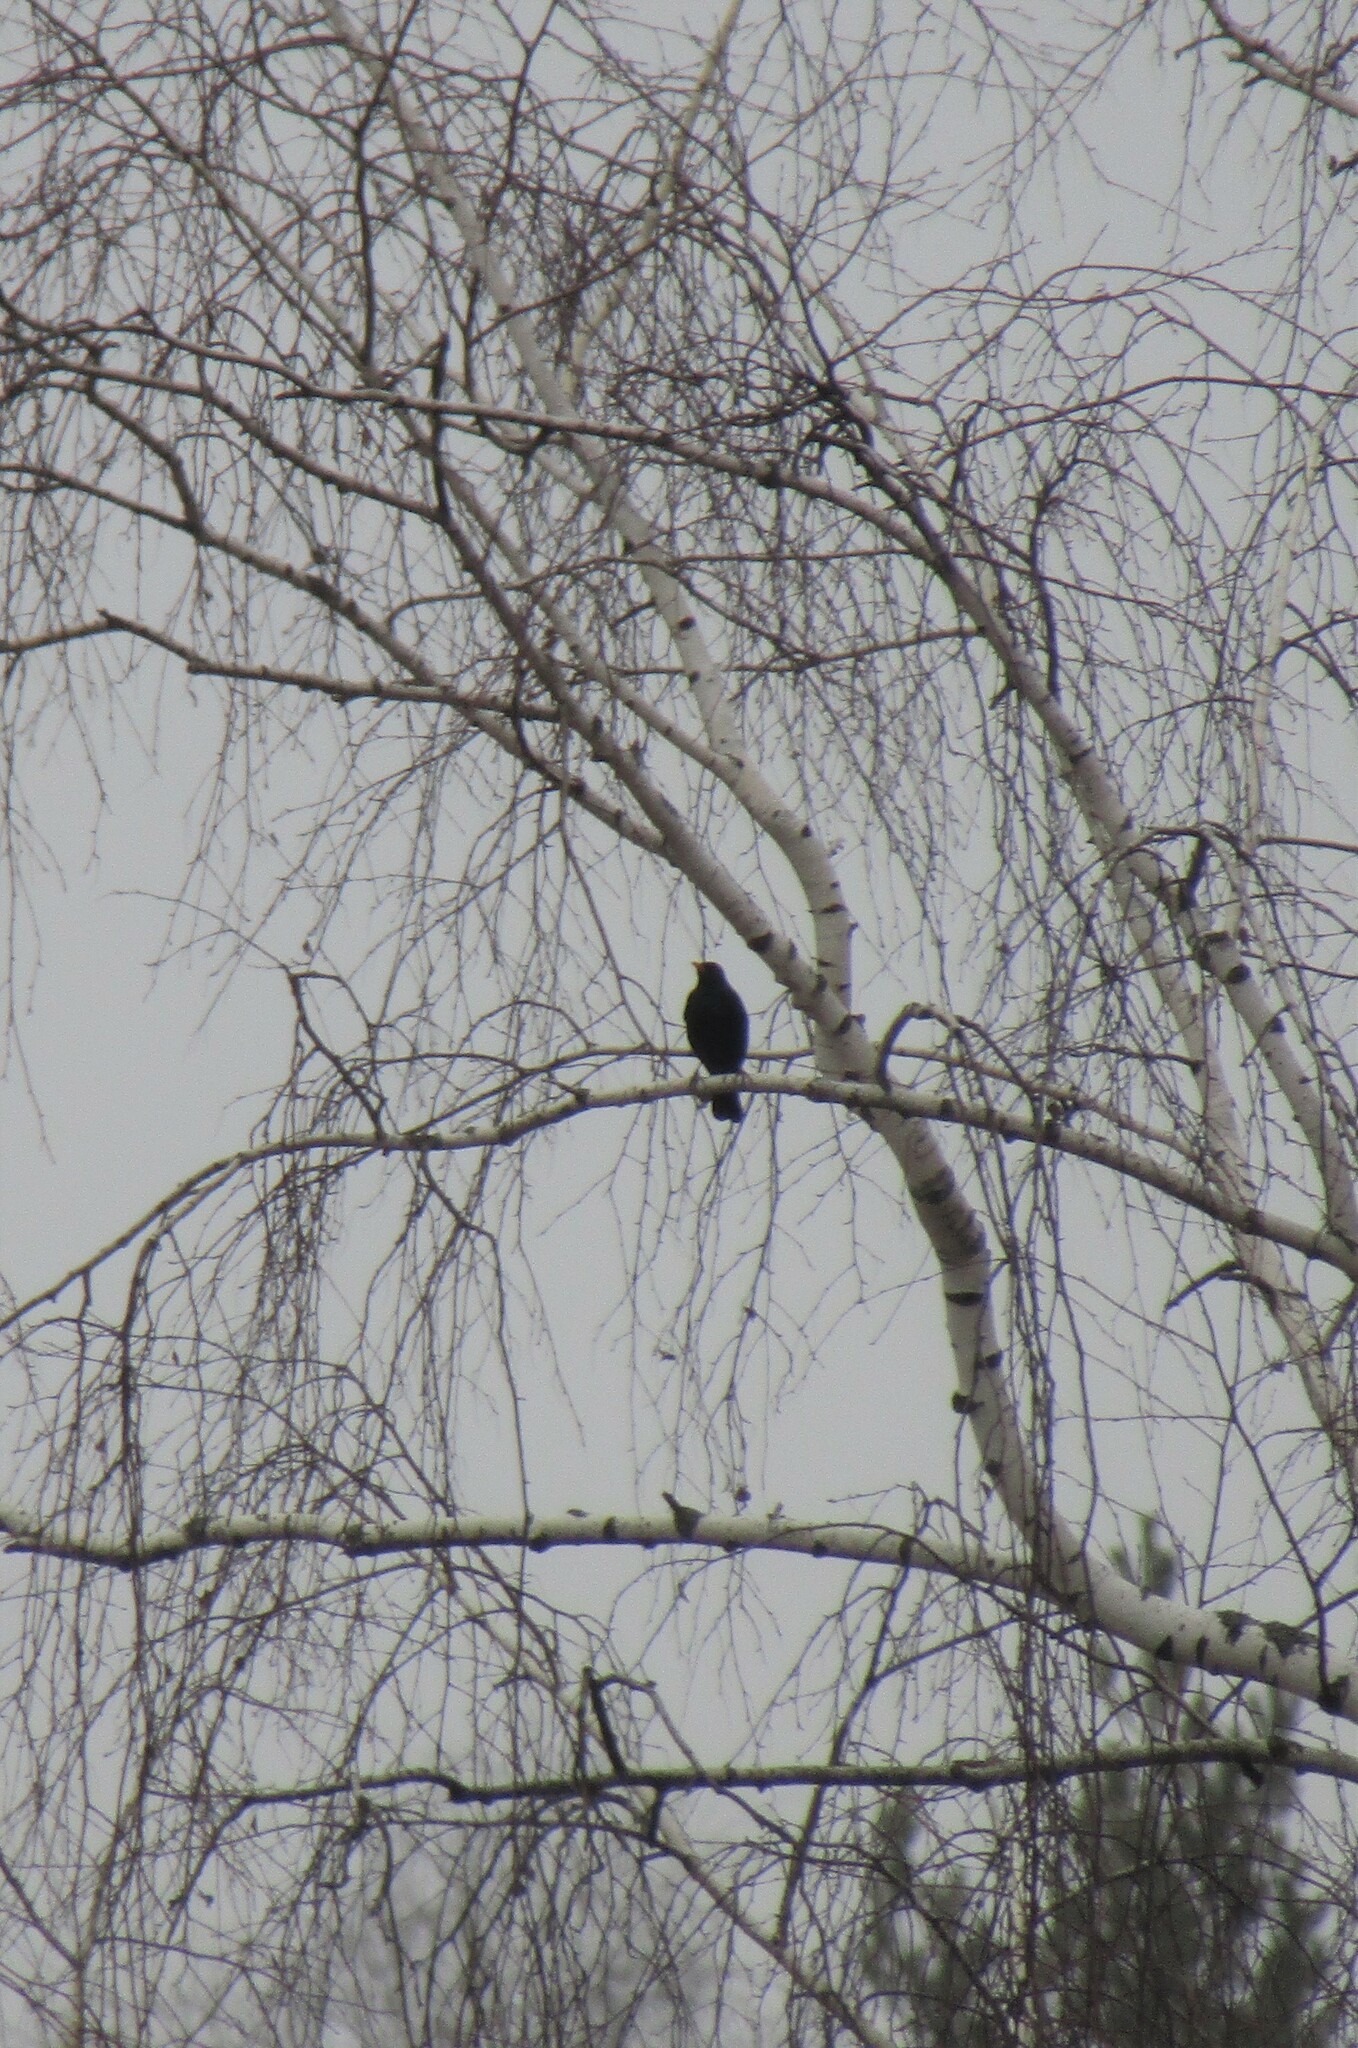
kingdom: Animalia
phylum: Chordata
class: Aves
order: Passeriformes
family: Turdidae
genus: Turdus
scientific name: Turdus merula
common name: Common blackbird
